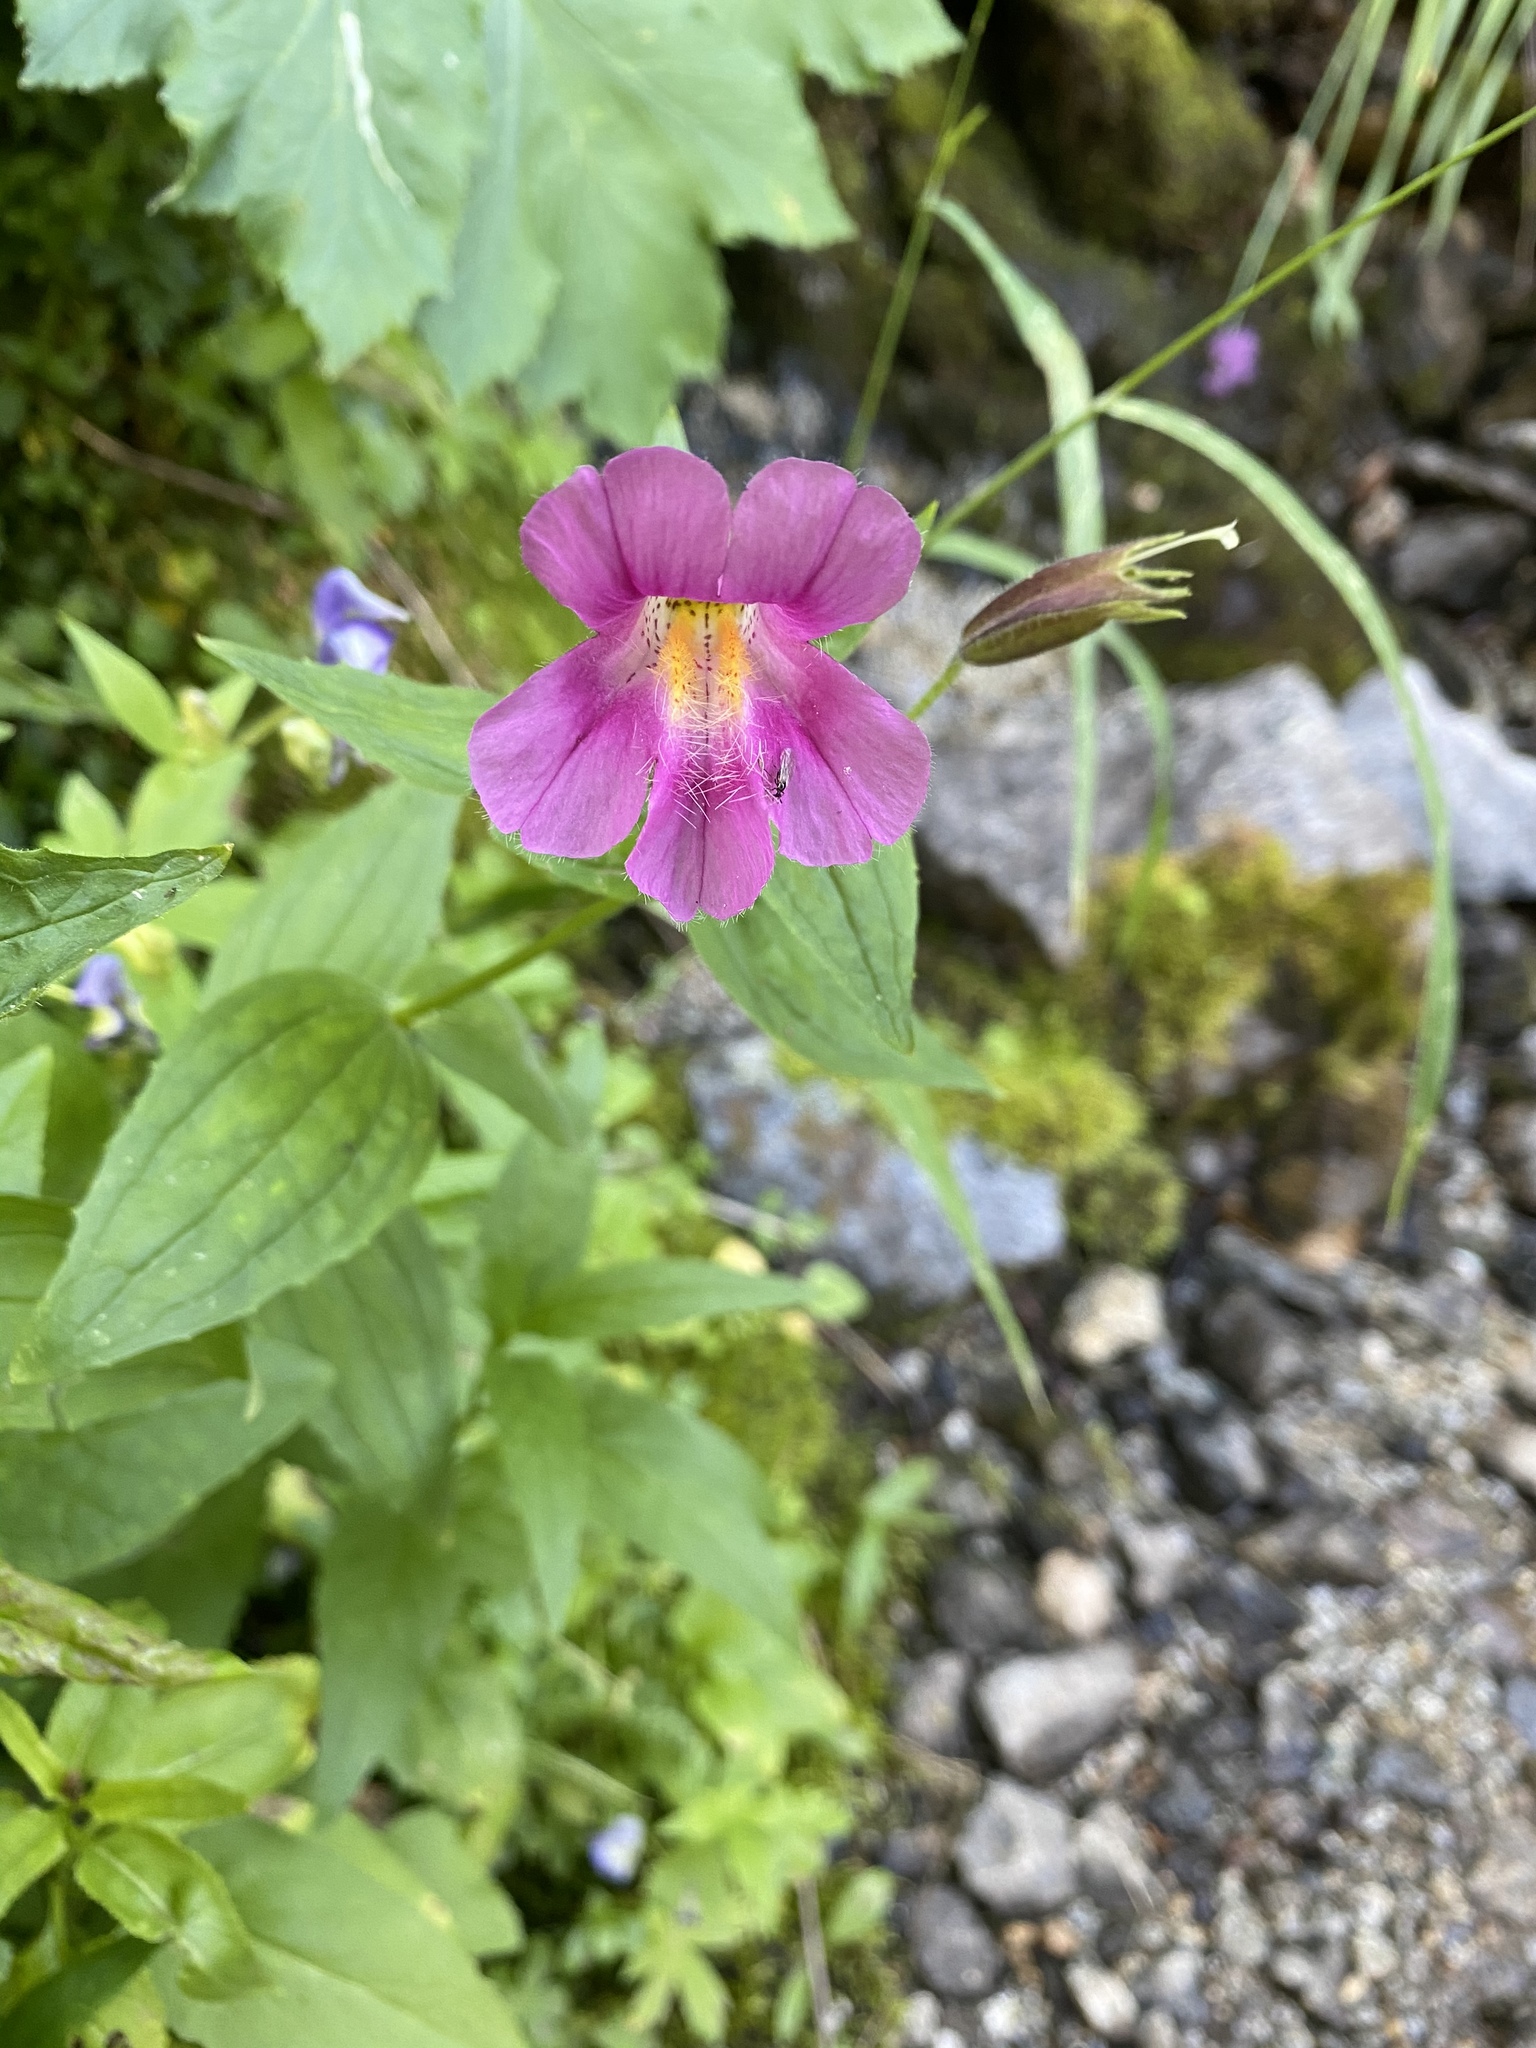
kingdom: Plantae
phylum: Tracheophyta
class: Magnoliopsida
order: Lamiales
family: Phrymaceae
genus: Erythranthe
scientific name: Erythranthe lewisii
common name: Lewis's monkey-flower
